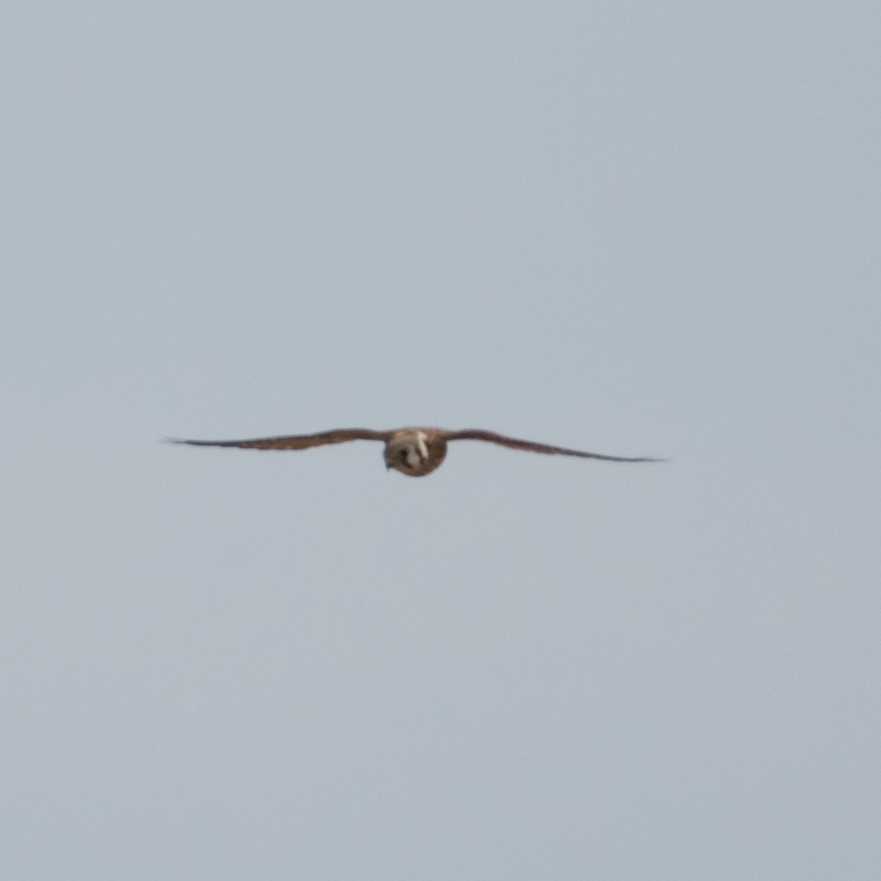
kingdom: Animalia
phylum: Chordata
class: Aves
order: Falconiformes
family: Falconidae
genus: Falco
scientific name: Falco sparverius
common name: American kestrel
